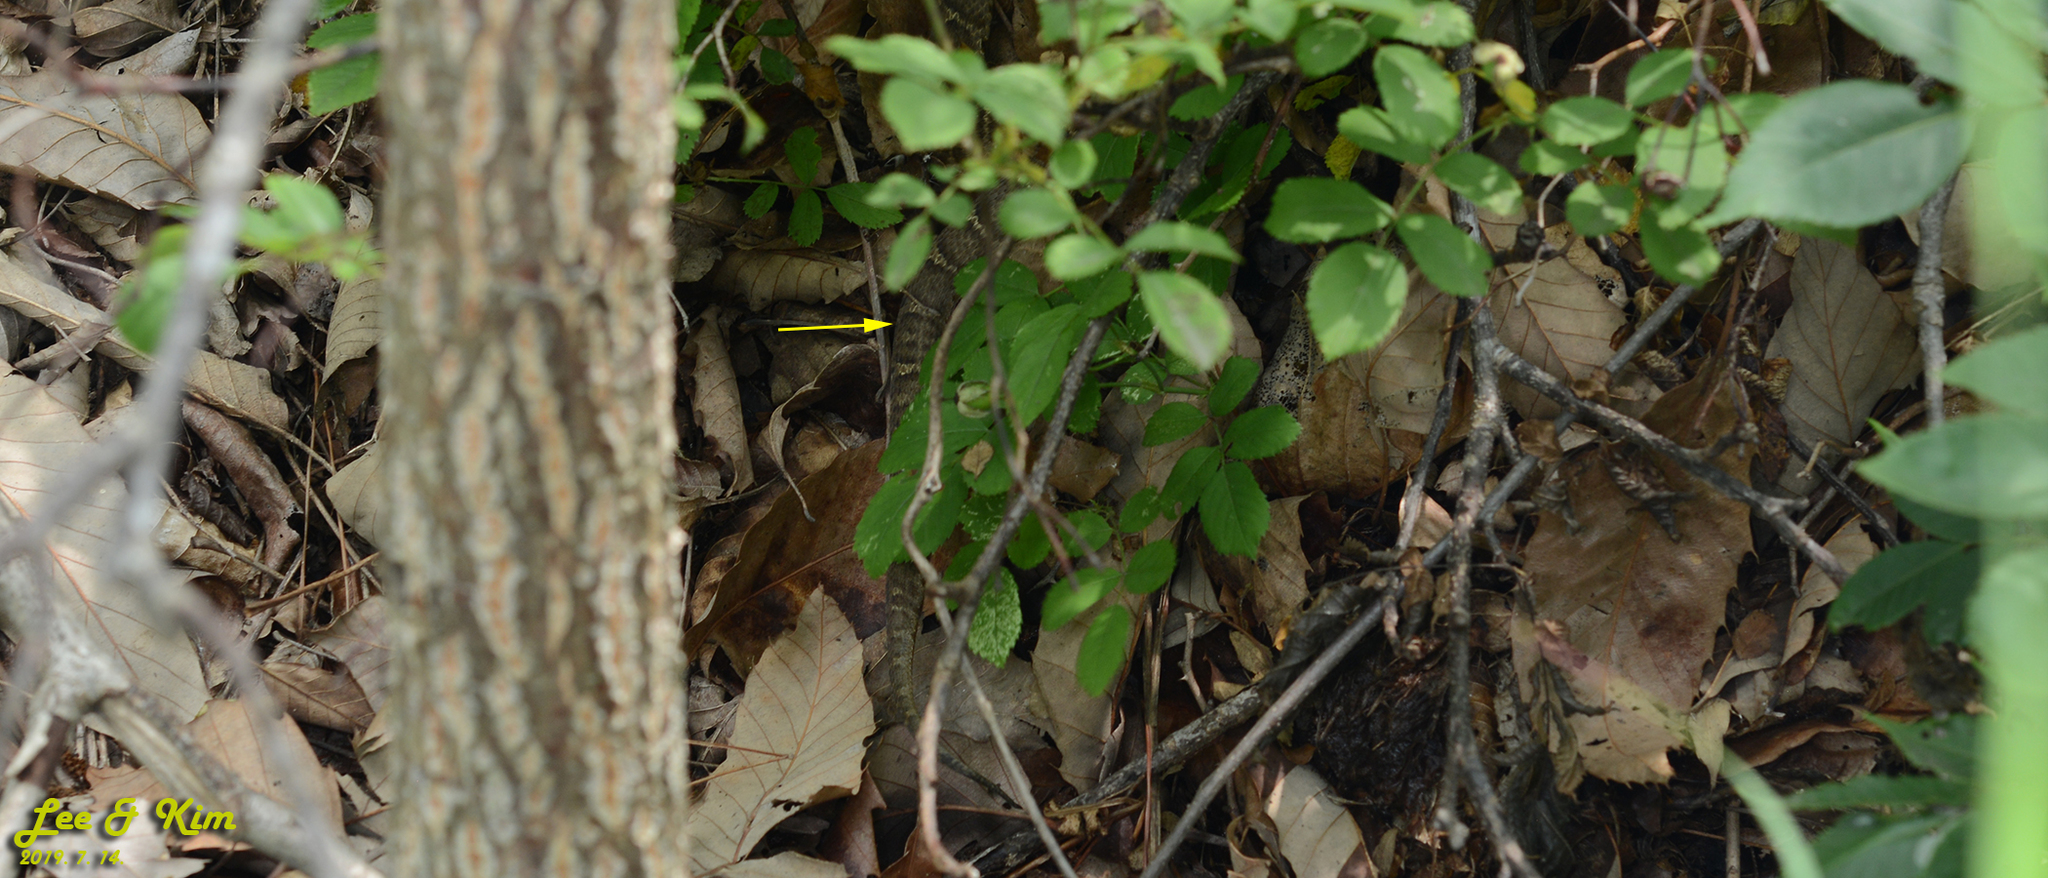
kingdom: Animalia
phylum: Chordata
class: Squamata
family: Viperidae
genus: Gloydius
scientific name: Gloydius ussuriensis
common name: Ussuri mamushi
